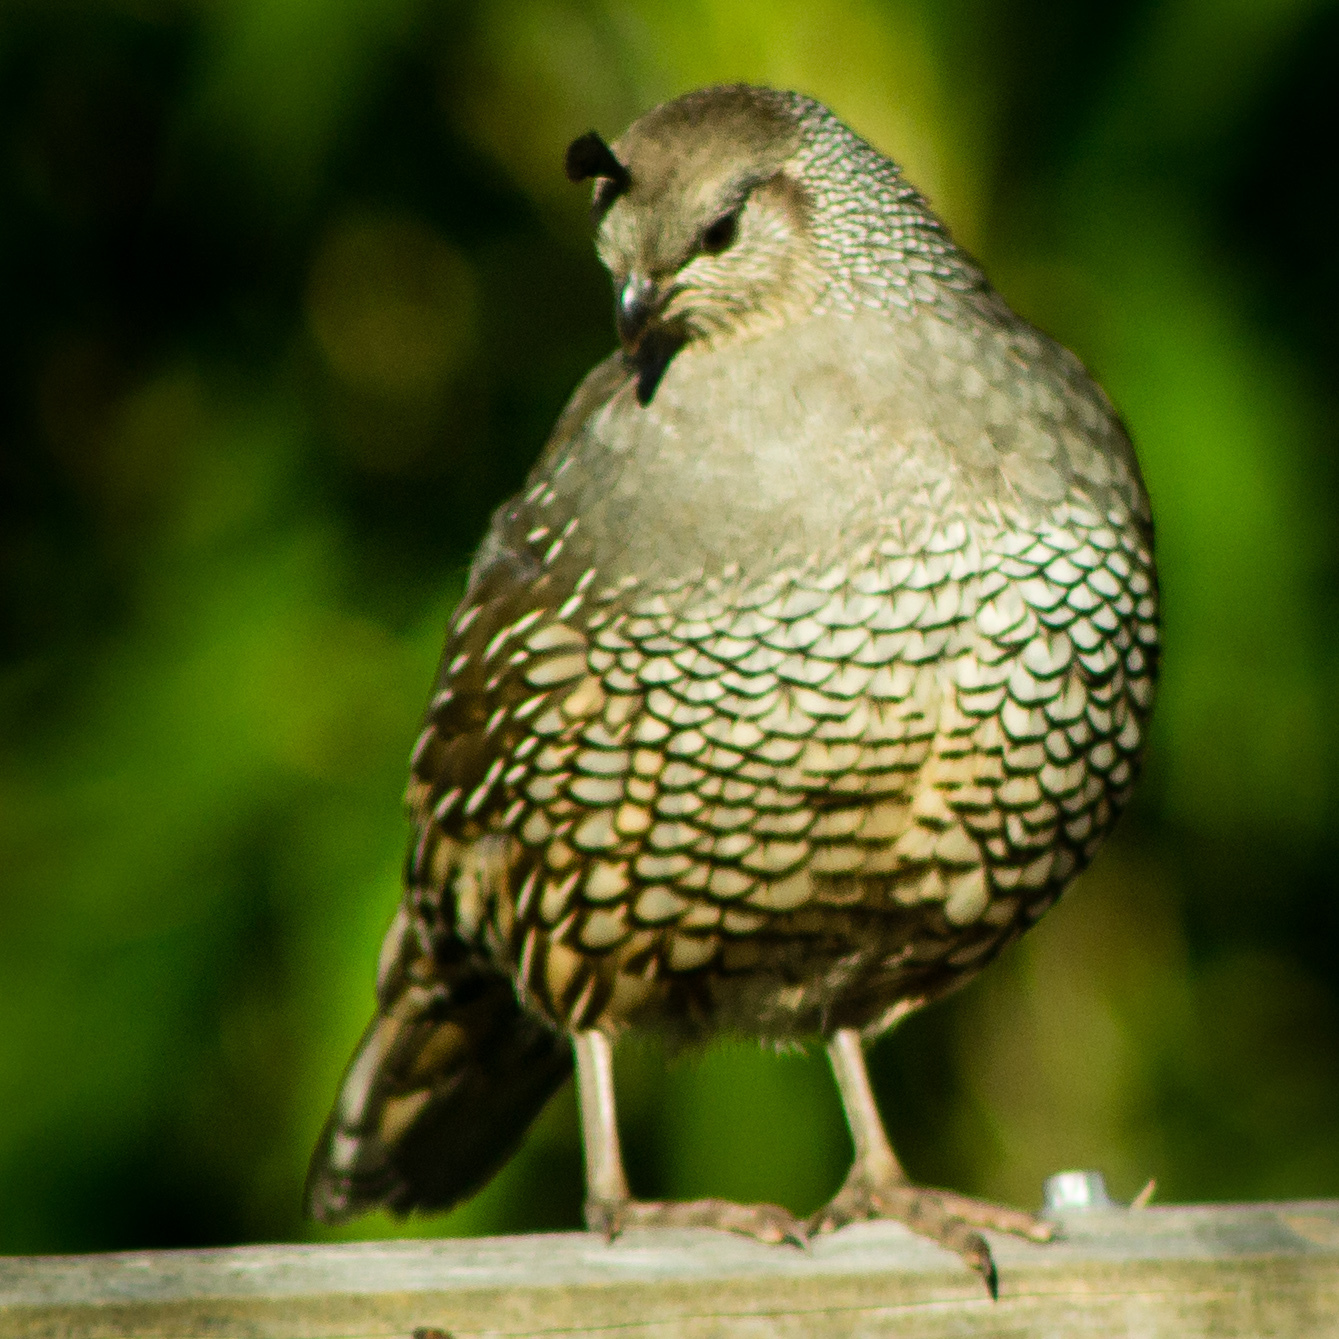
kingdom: Animalia
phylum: Chordata
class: Aves
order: Galliformes
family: Odontophoridae
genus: Callipepla
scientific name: Callipepla californica
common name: California quail
